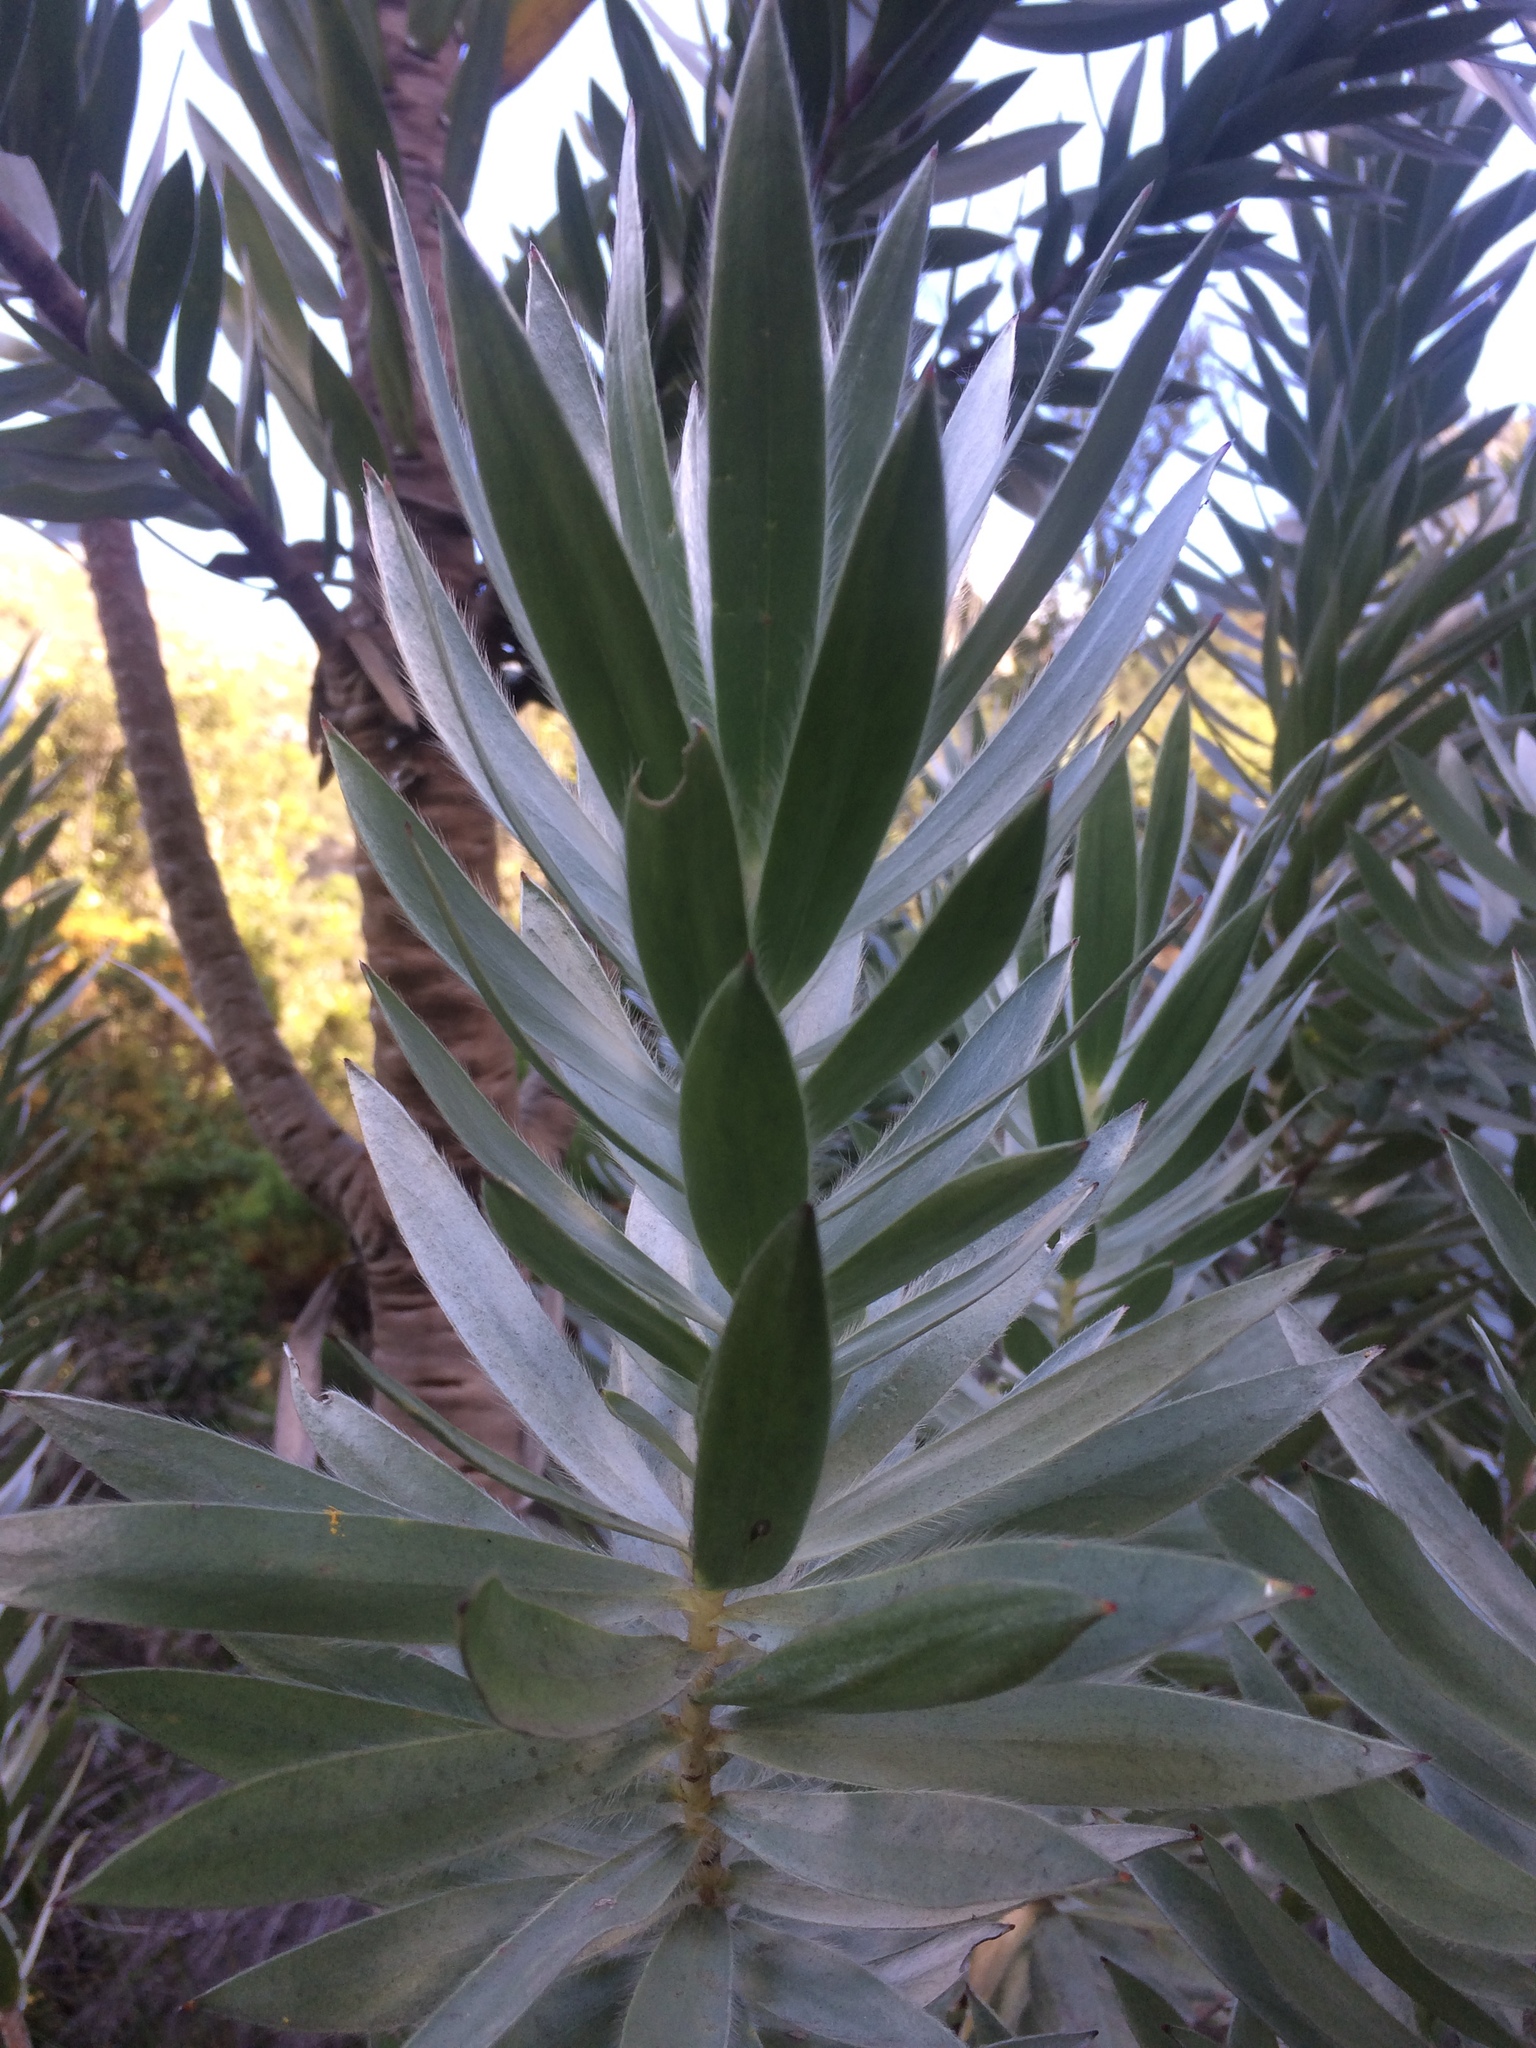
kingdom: Plantae
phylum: Tracheophyta
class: Magnoliopsida
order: Proteales
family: Proteaceae
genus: Leucadendron
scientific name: Leucadendron argenteum
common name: Cape silver tree
